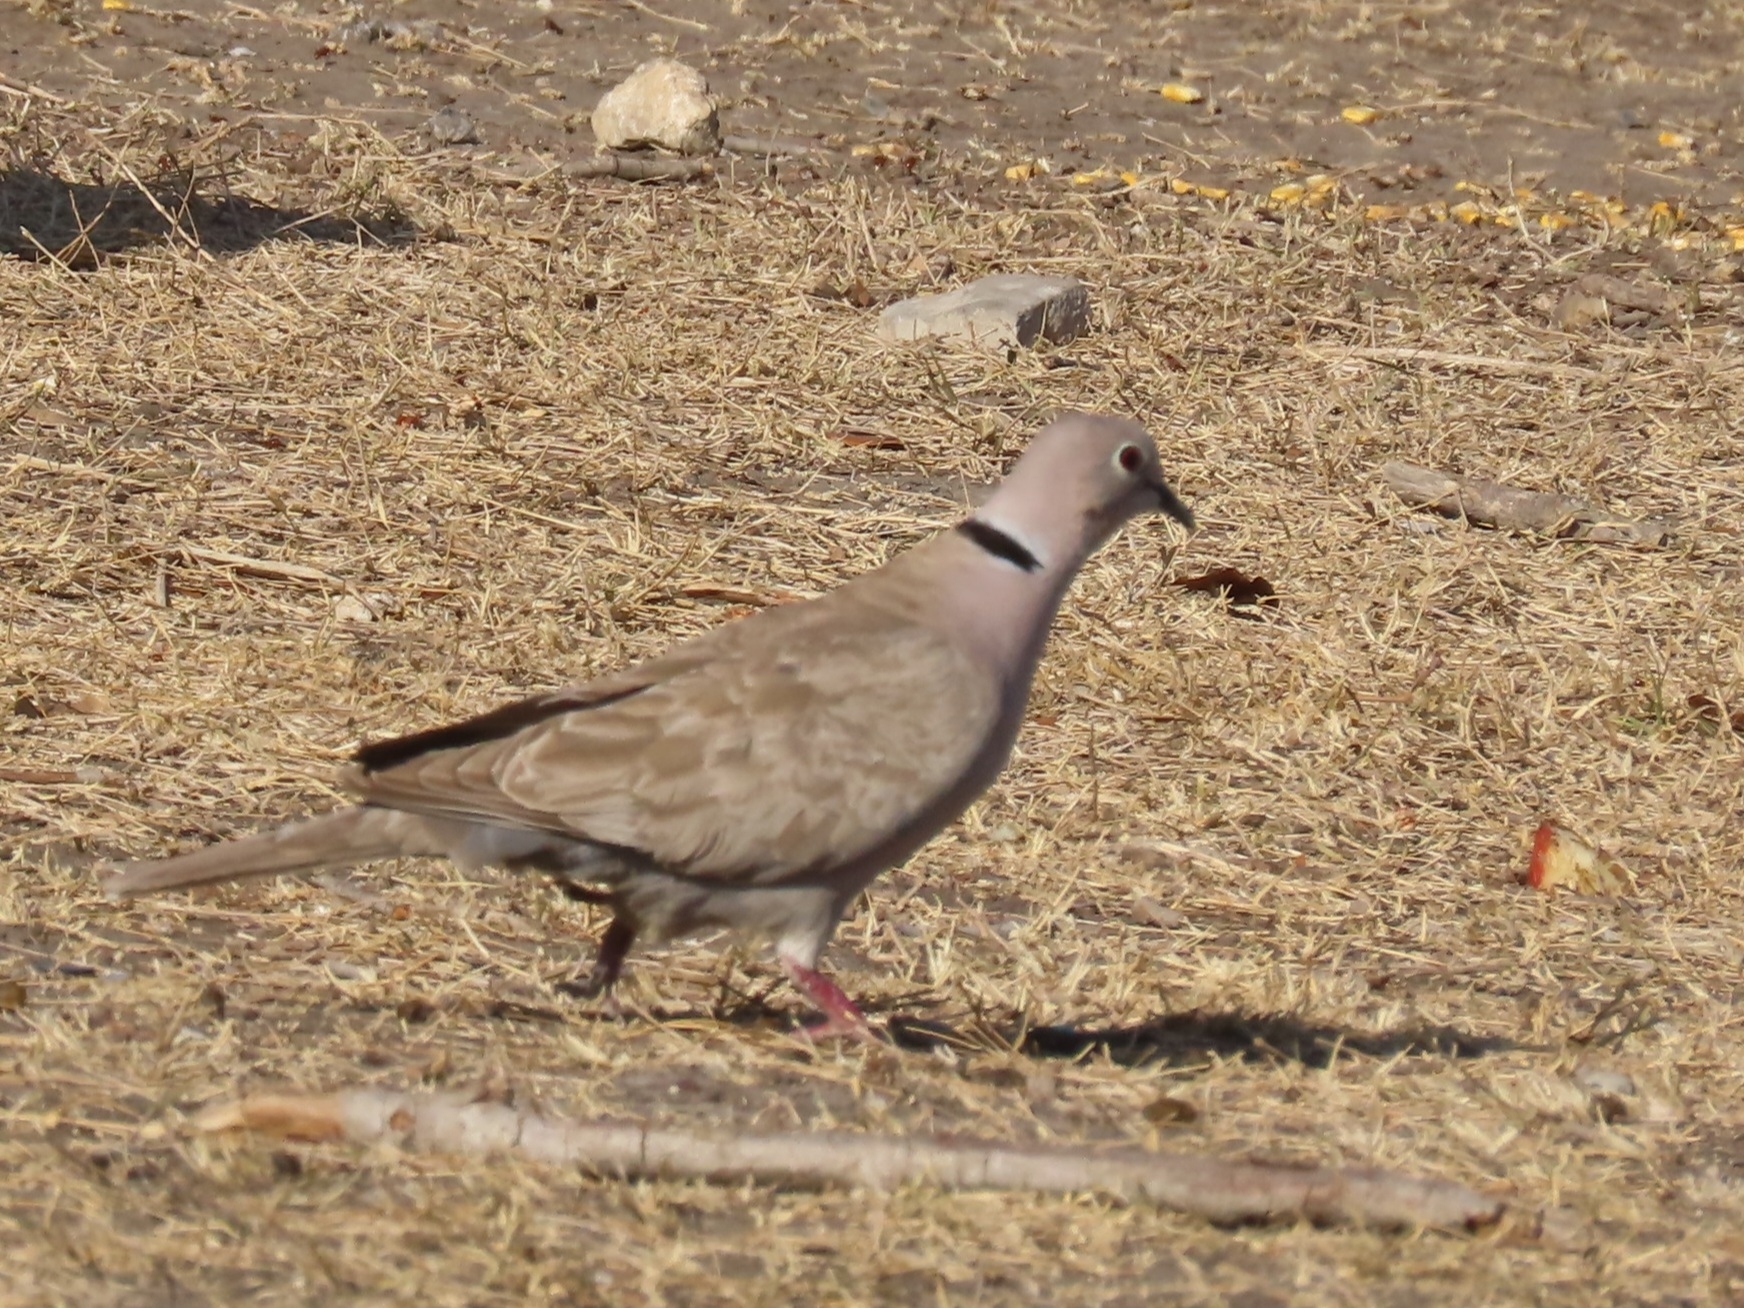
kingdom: Animalia
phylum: Chordata
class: Aves
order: Columbiformes
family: Columbidae
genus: Streptopelia
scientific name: Streptopelia decaocto
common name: Eurasian collared dove
